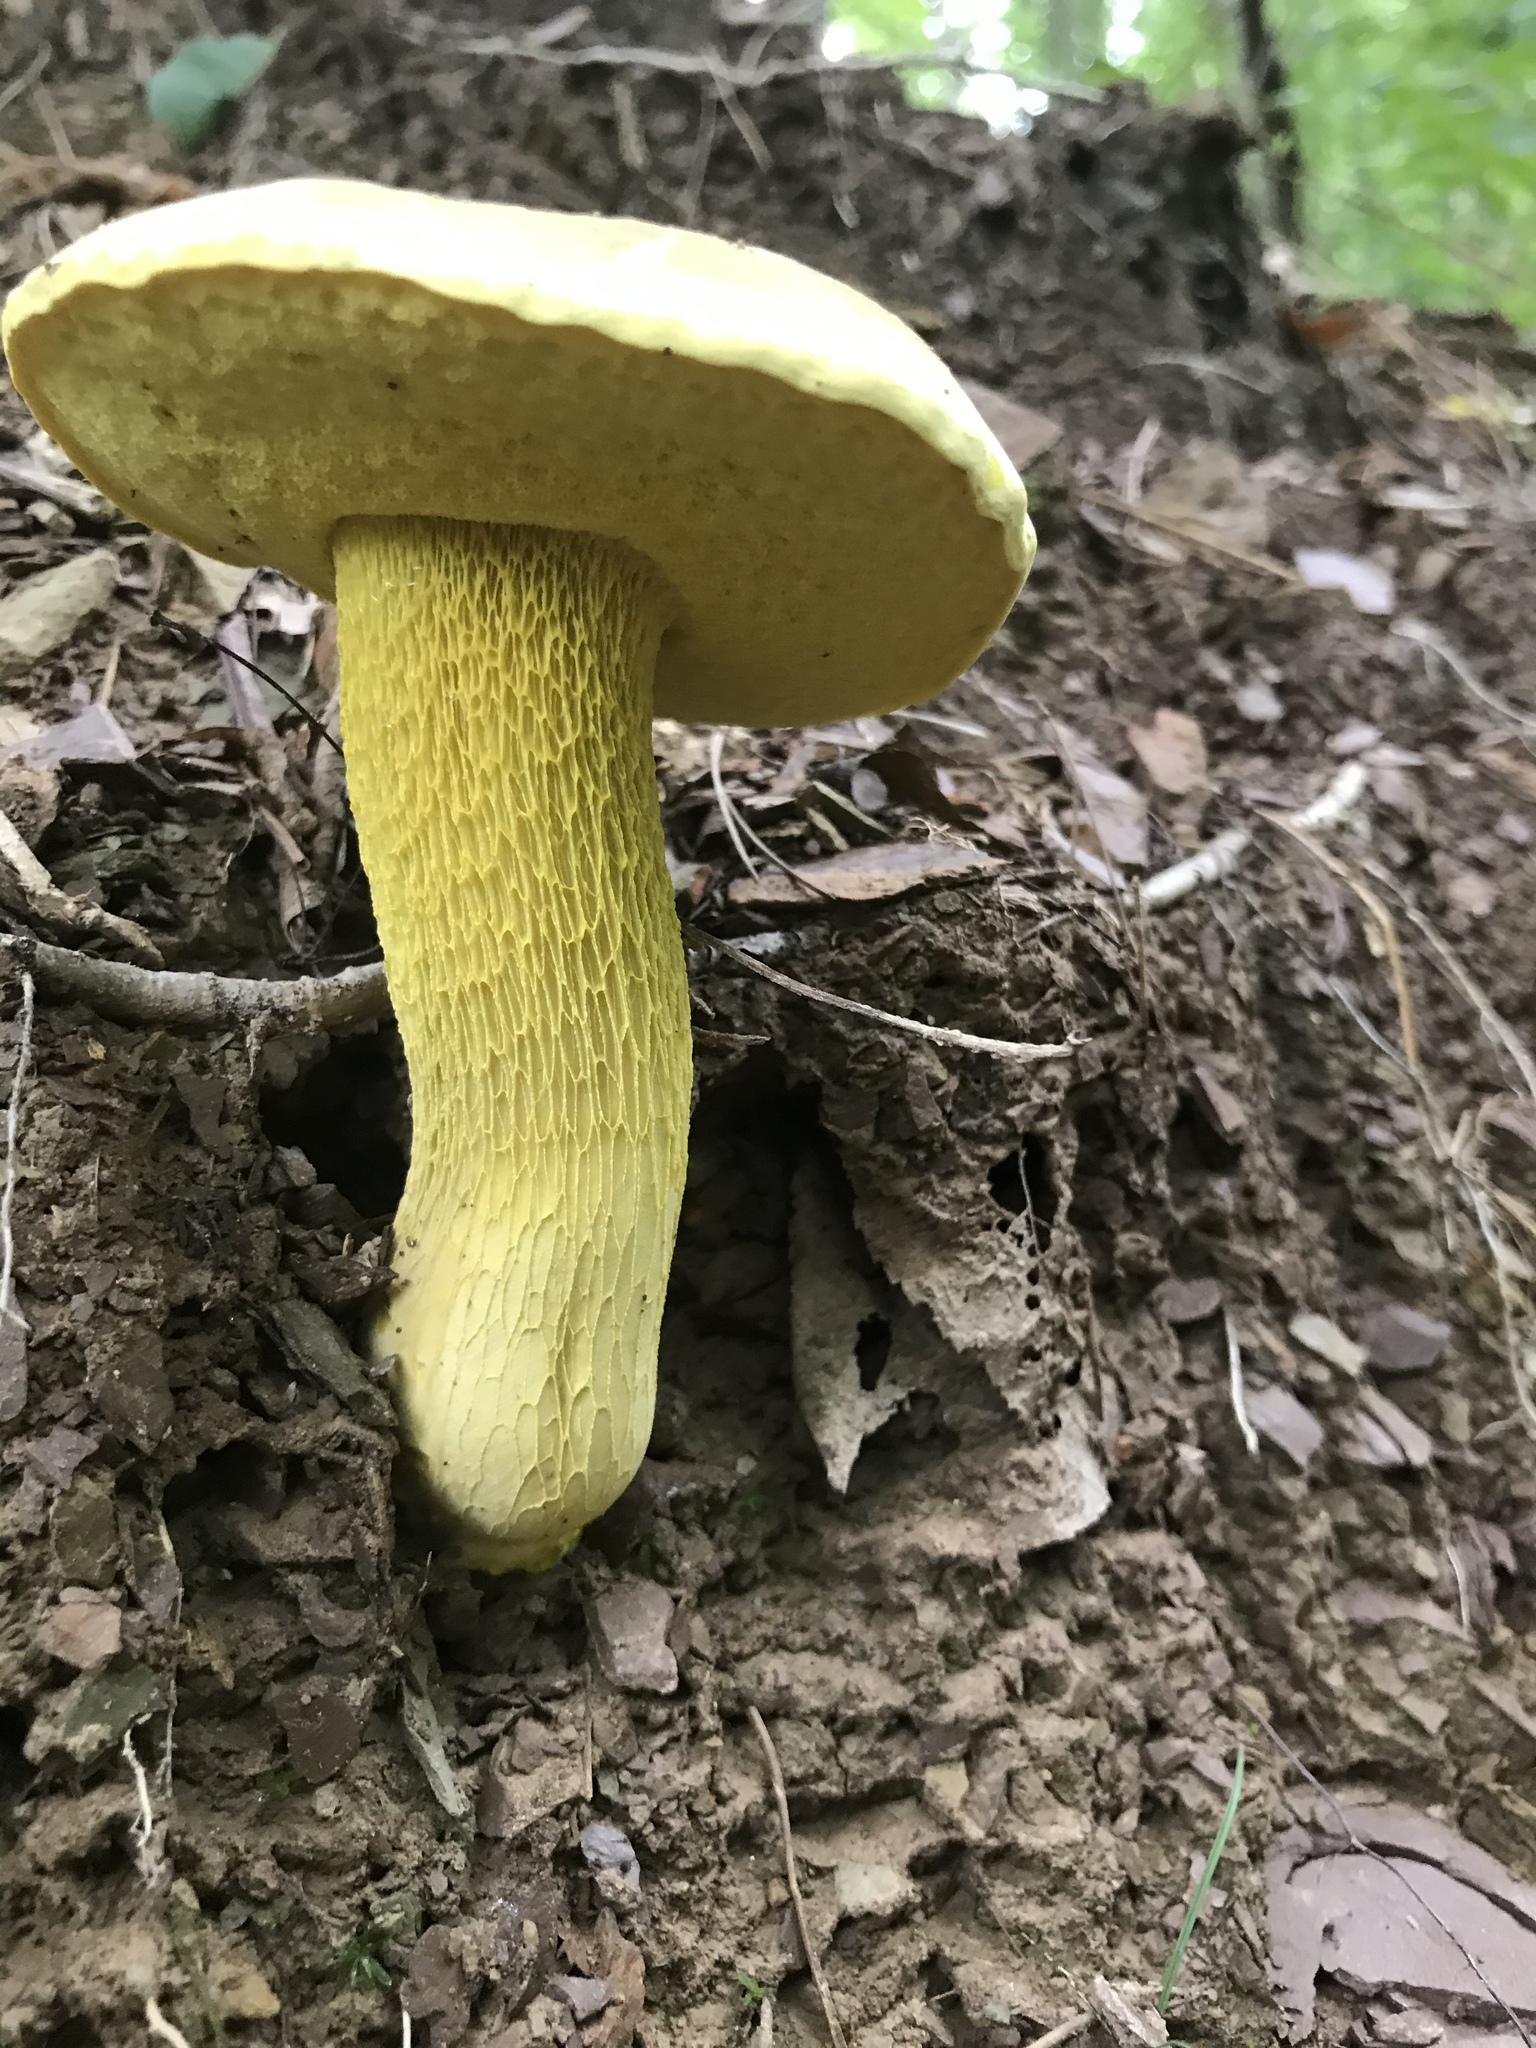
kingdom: Fungi
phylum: Basidiomycota
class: Agaricomycetes
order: Boletales
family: Boletaceae
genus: Retiboletus
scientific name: Retiboletus ornatipes
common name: Ornate-stalked bolete
